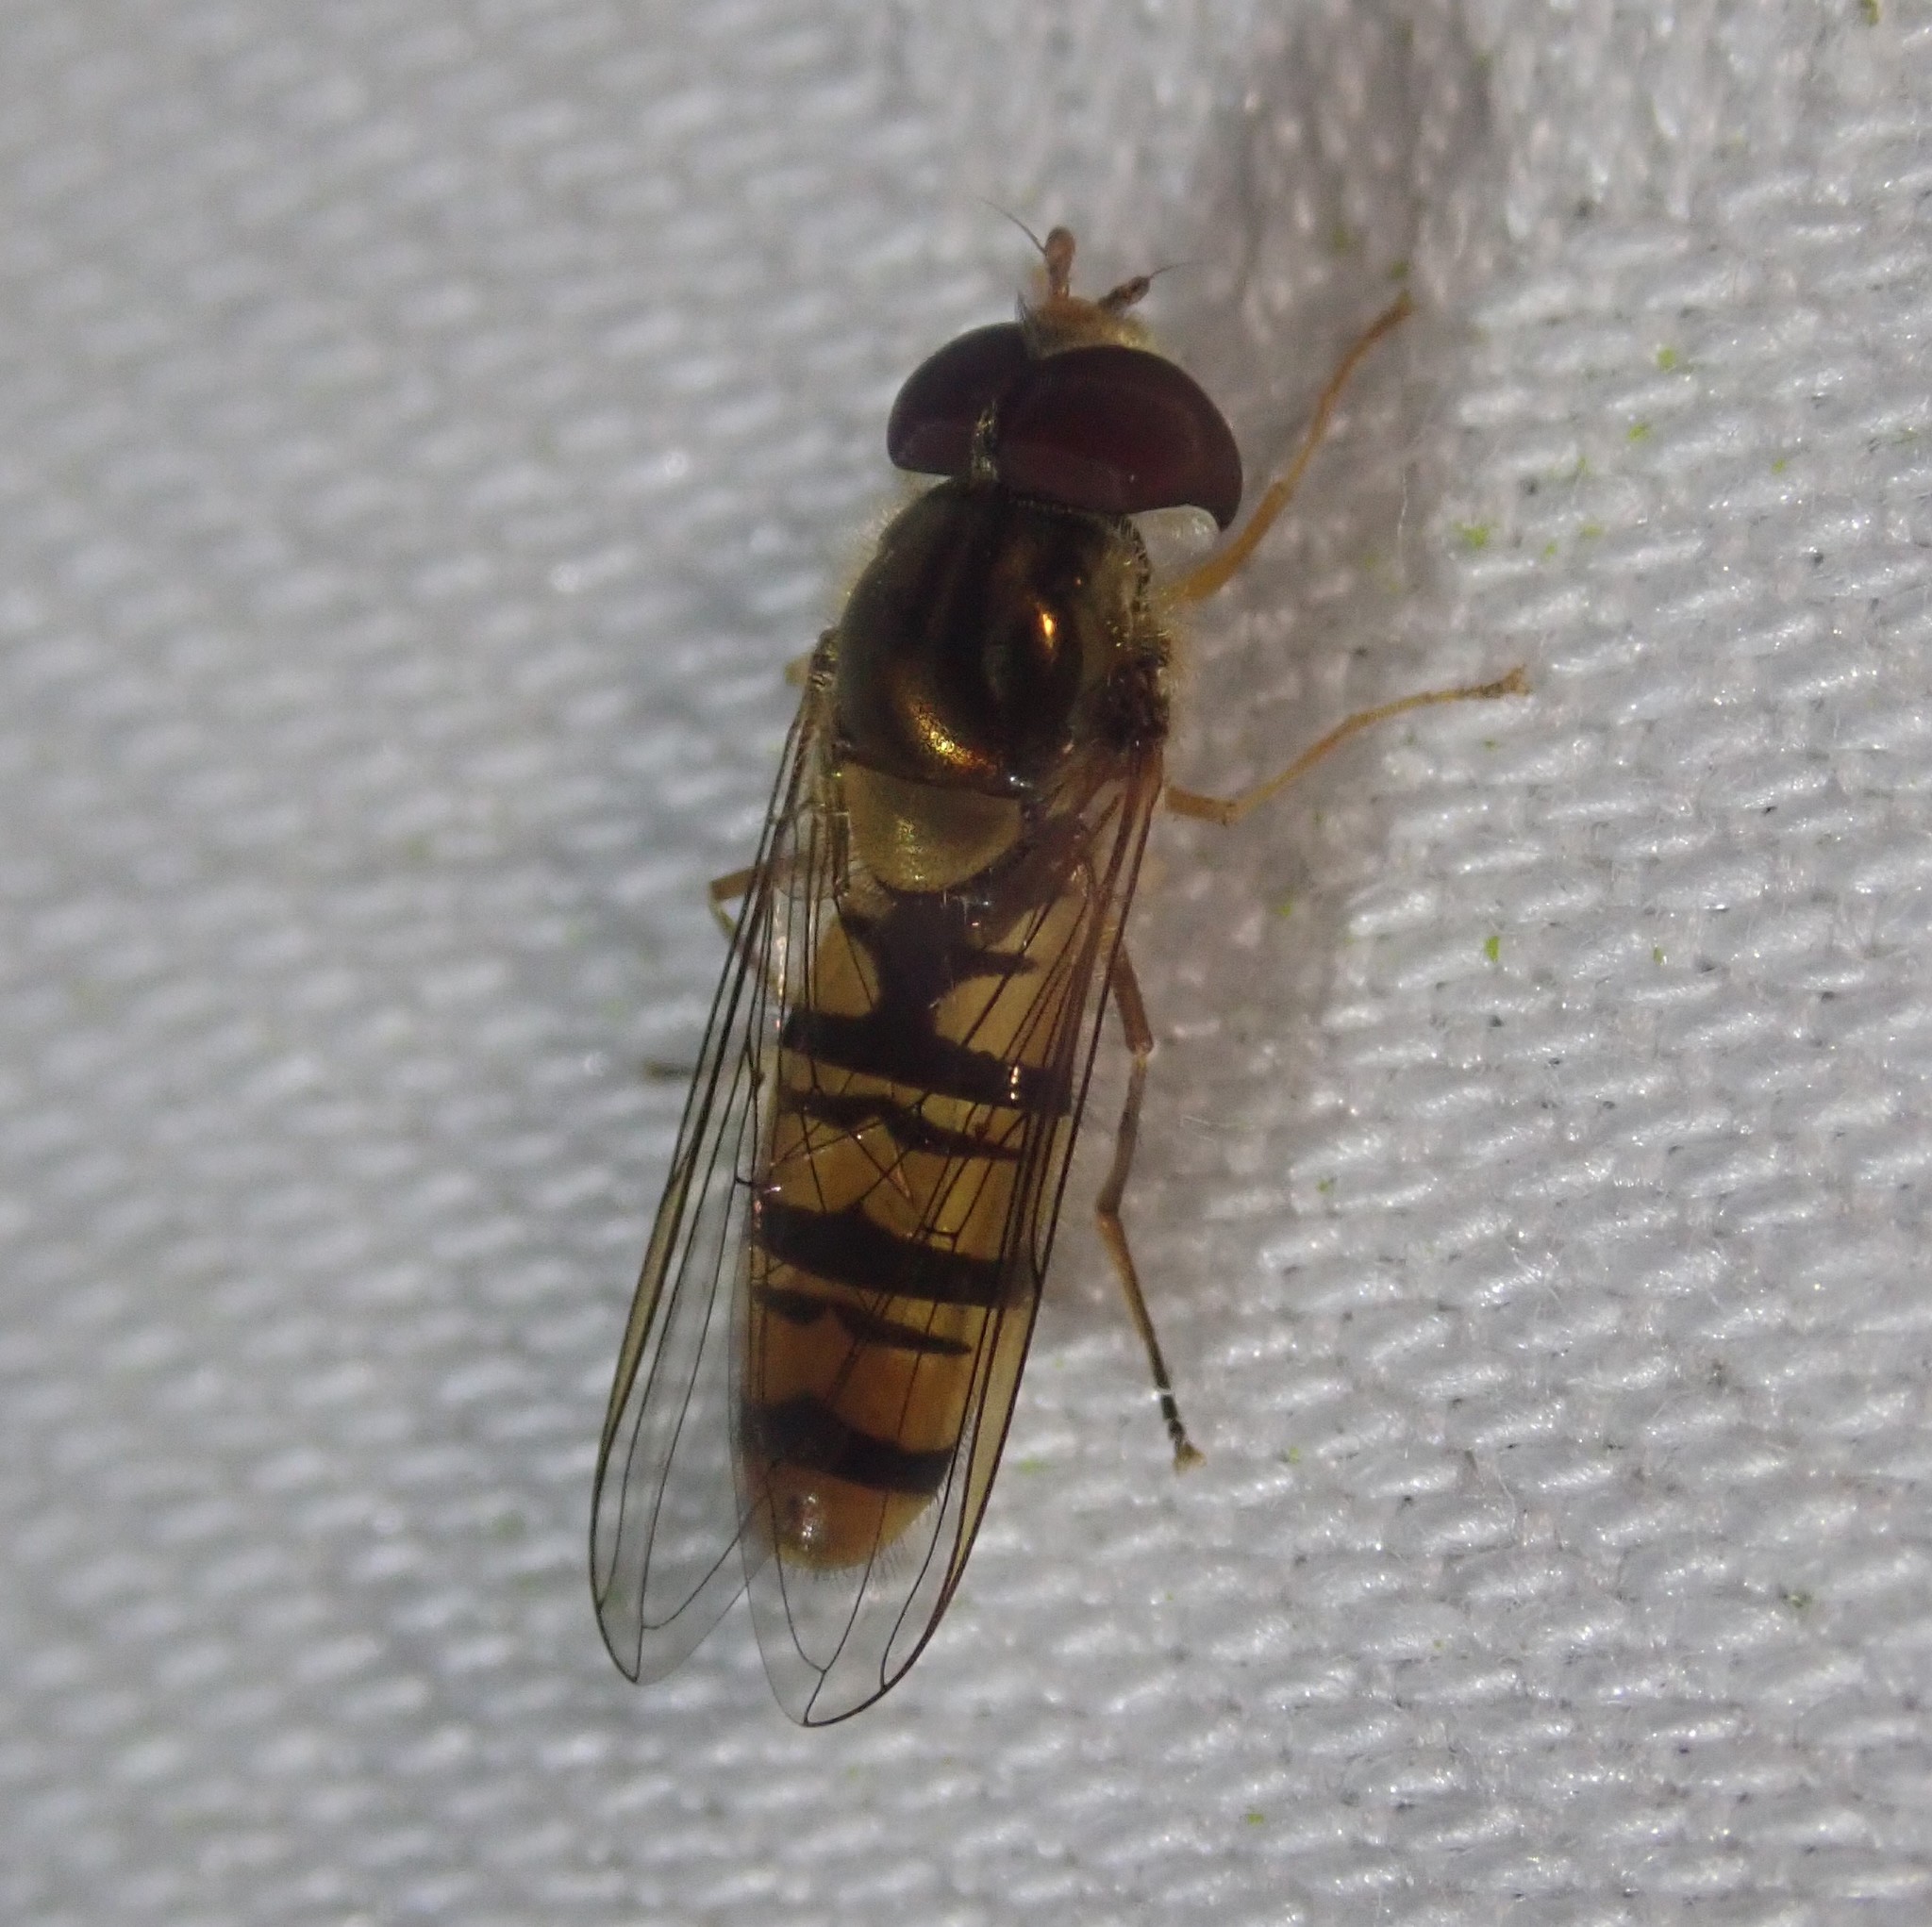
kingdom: Animalia
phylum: Arthropoda
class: Insecta
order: Diptera
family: Syrphidae
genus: Episyrphus
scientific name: Episyrphus balteatus
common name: Marmalade hoverfly
